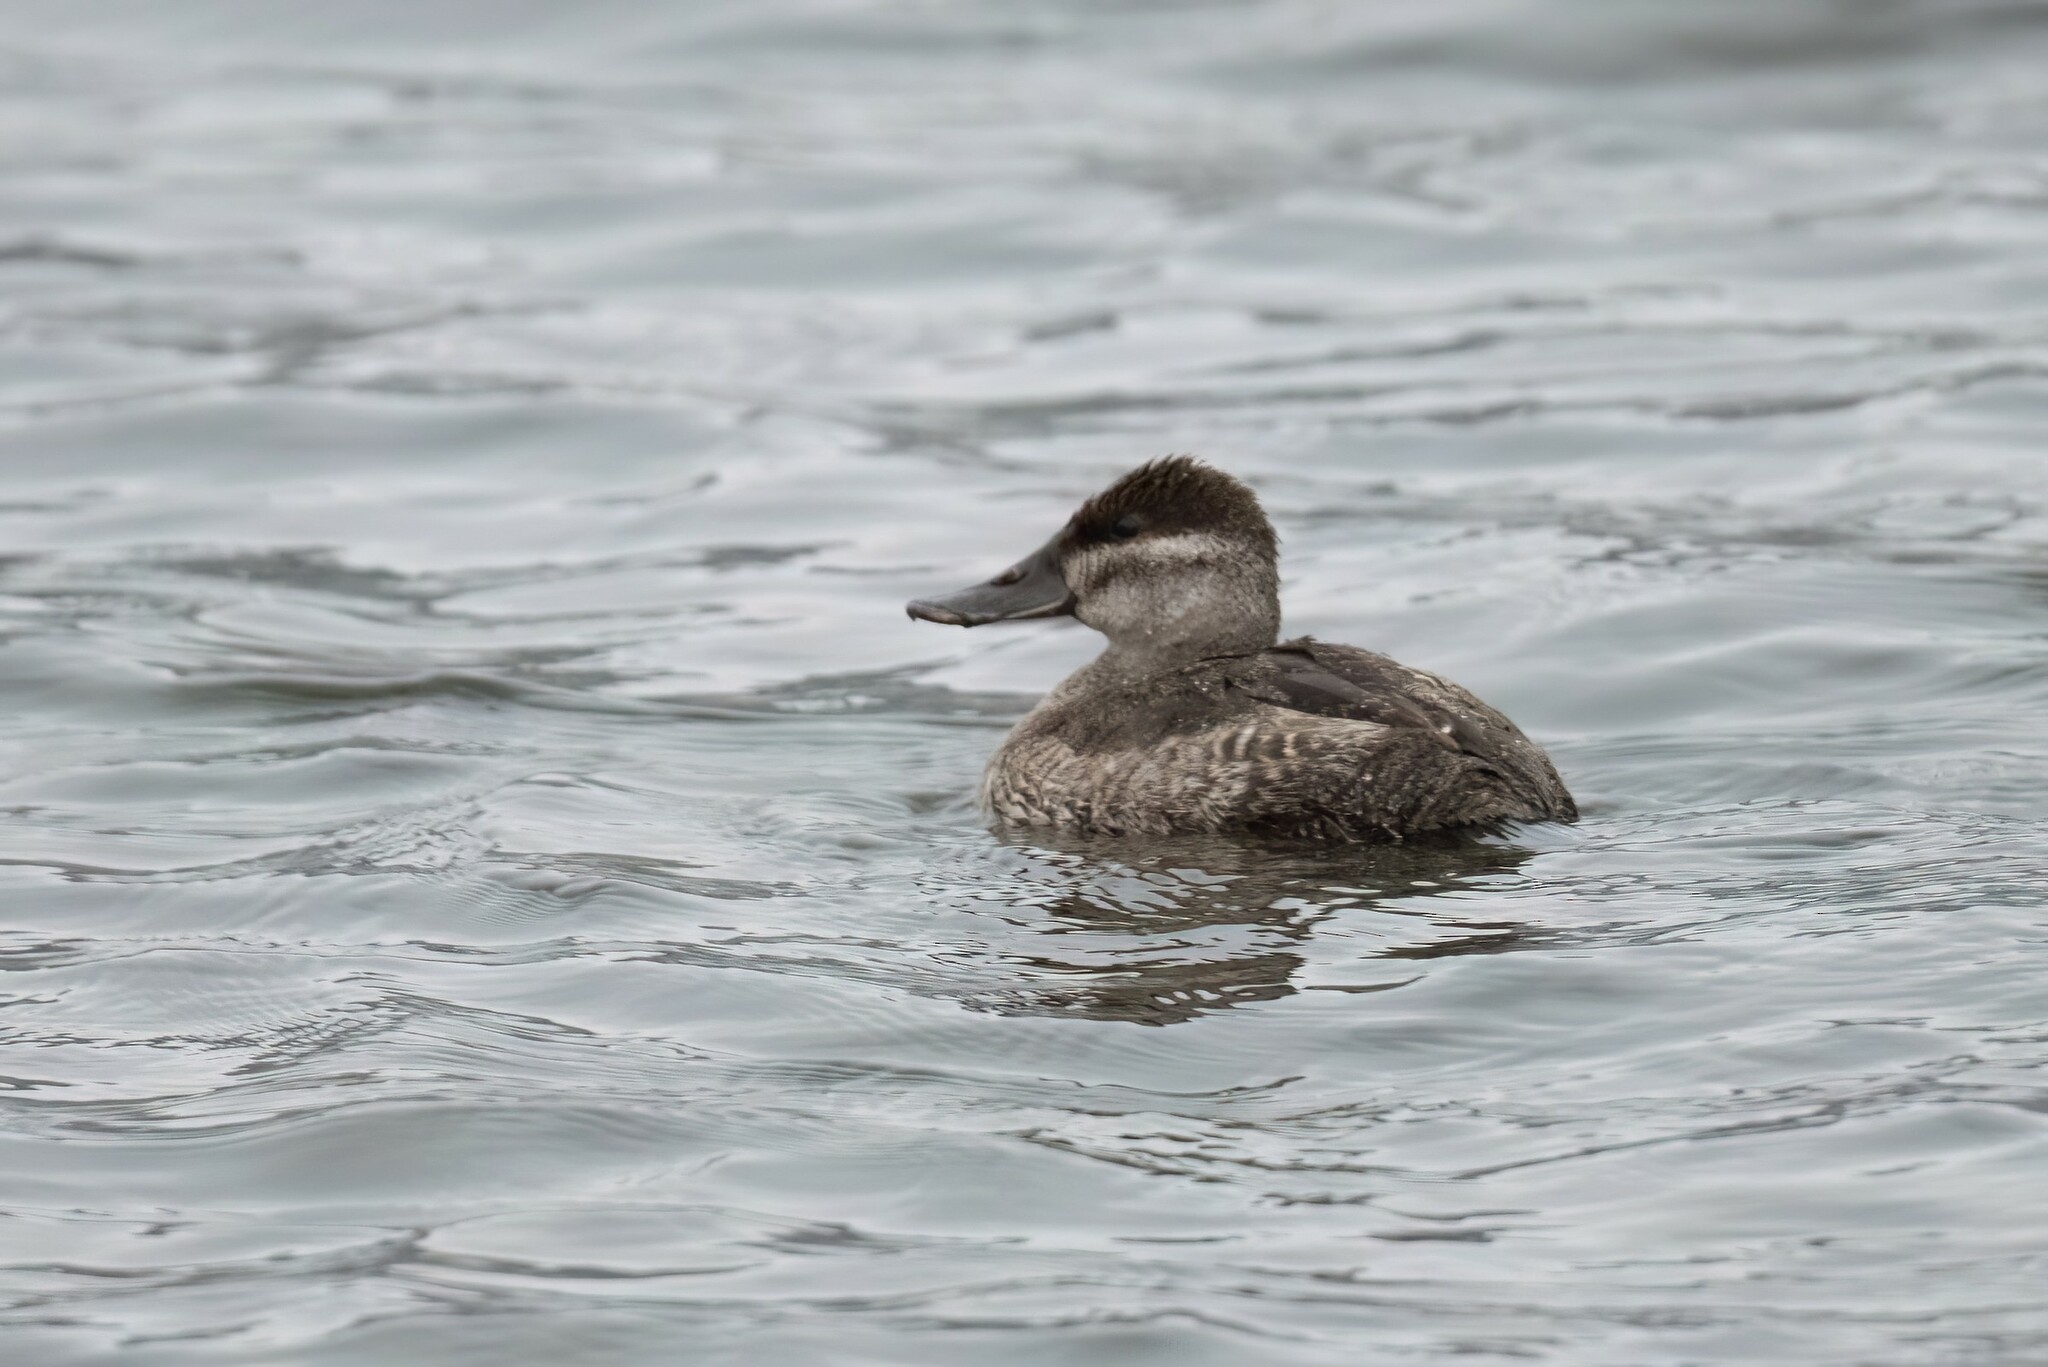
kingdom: Animalia
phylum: Chordata
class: Aves
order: Anseriformes
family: Anatidae
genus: Oxyura
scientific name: Oxyura jamaicensis
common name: Ruddy duck
